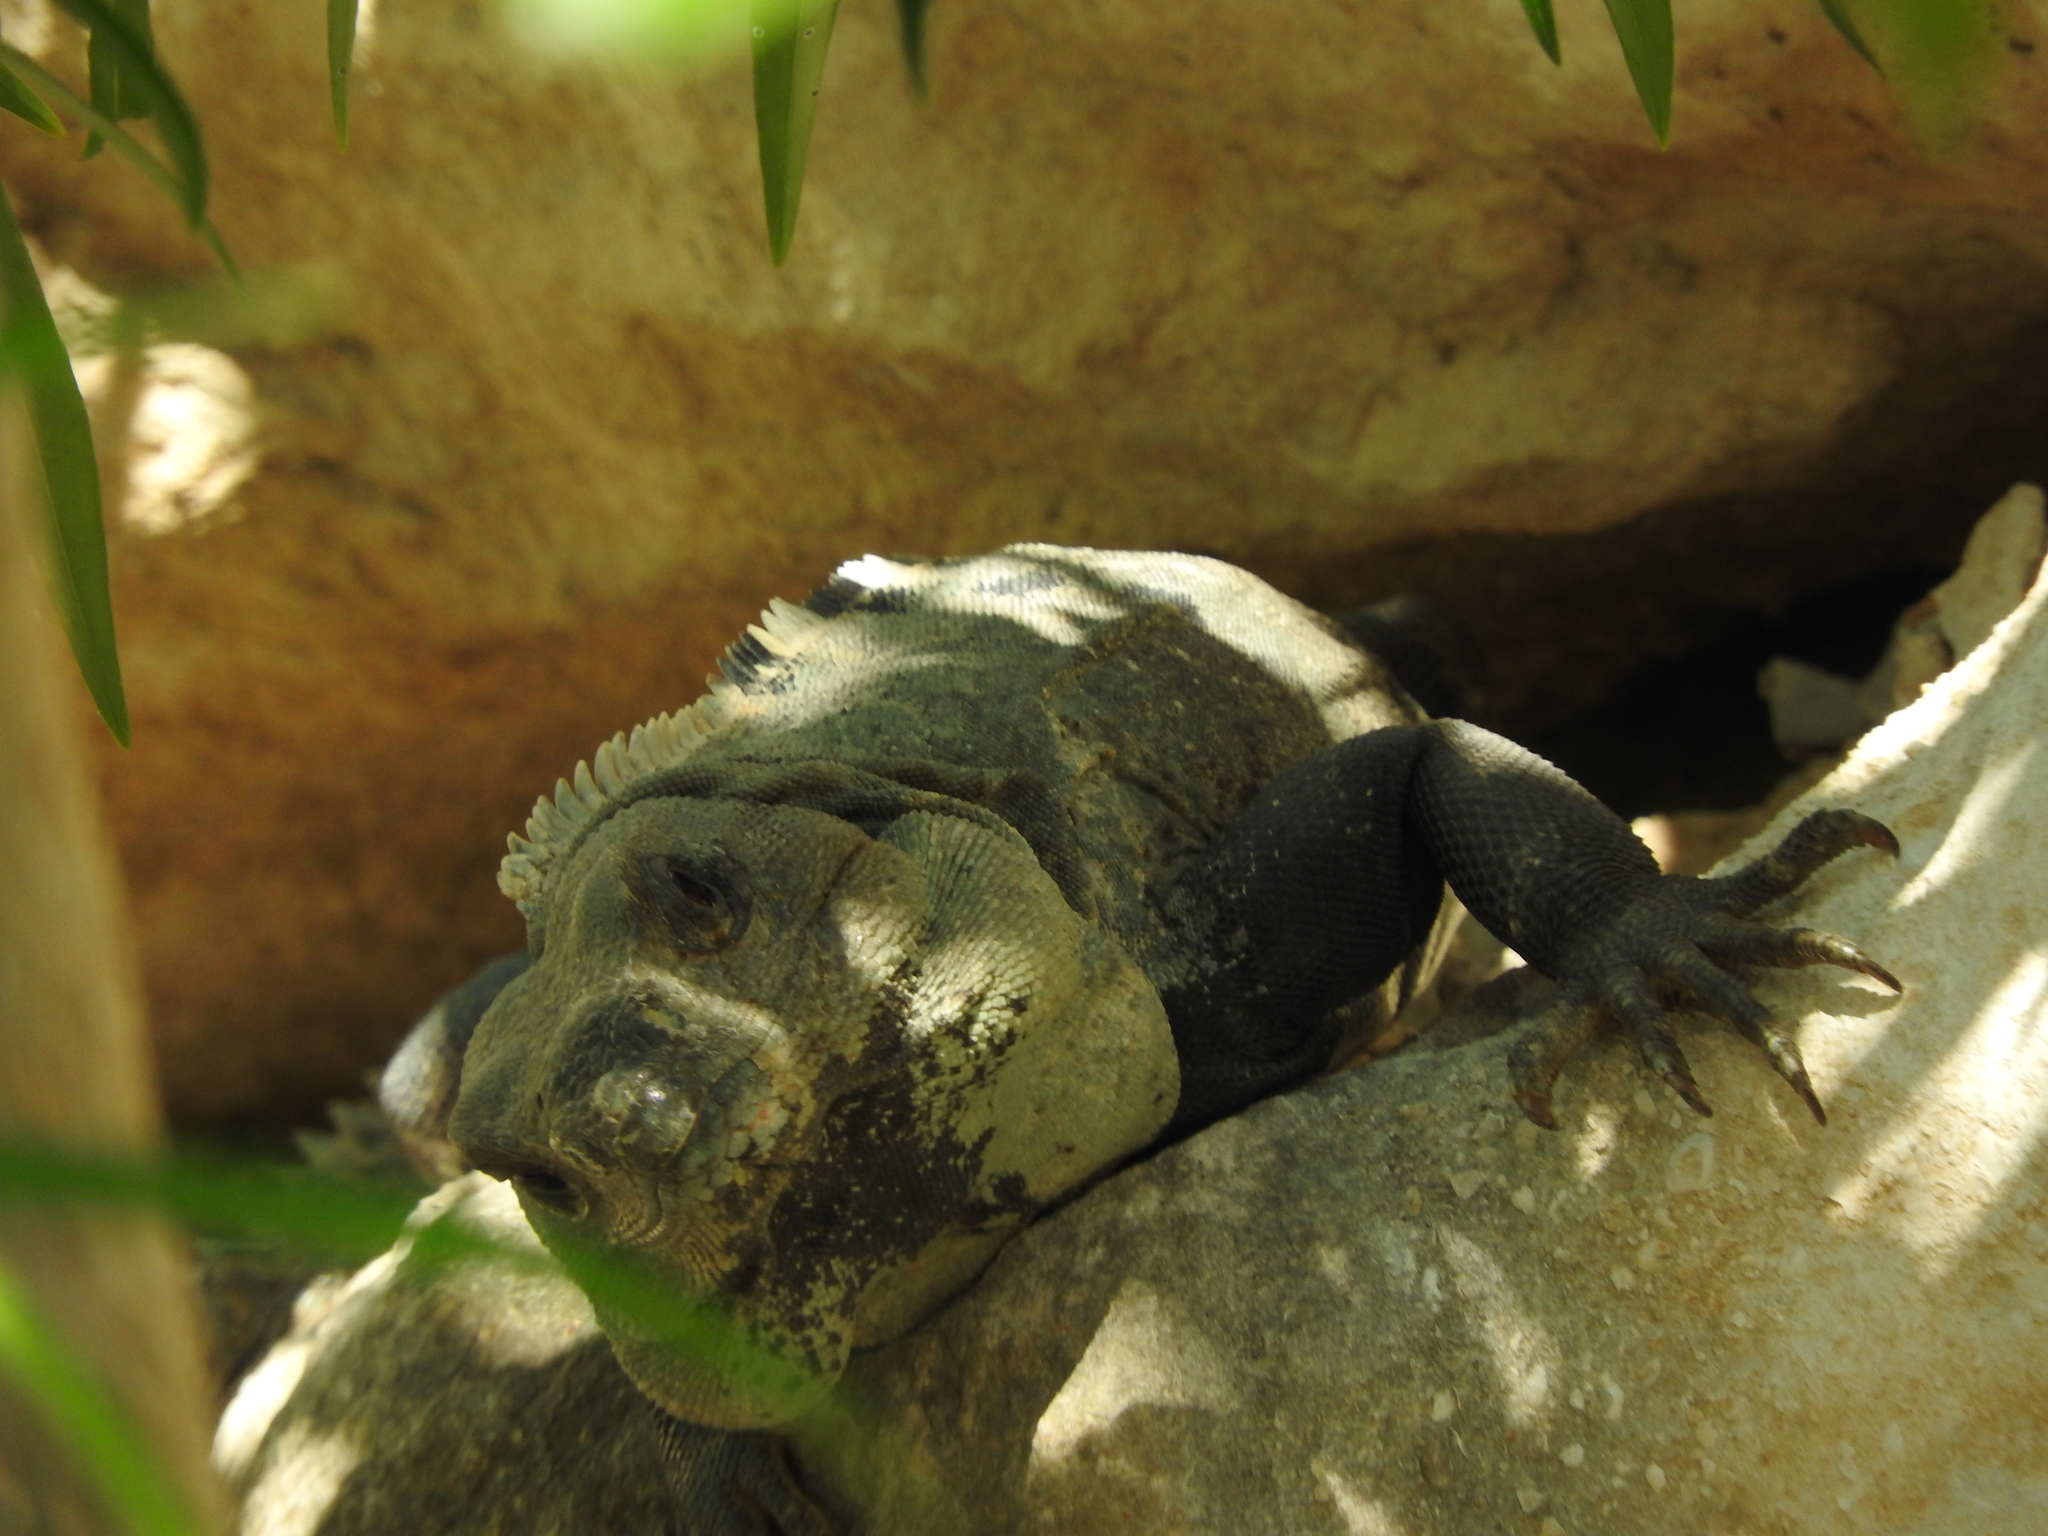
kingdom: Animalia
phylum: Chordata
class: Squamata
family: Iguanidae
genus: Ctenosaura
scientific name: Ctenosaura similis
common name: Black spiny-tailed iguana
